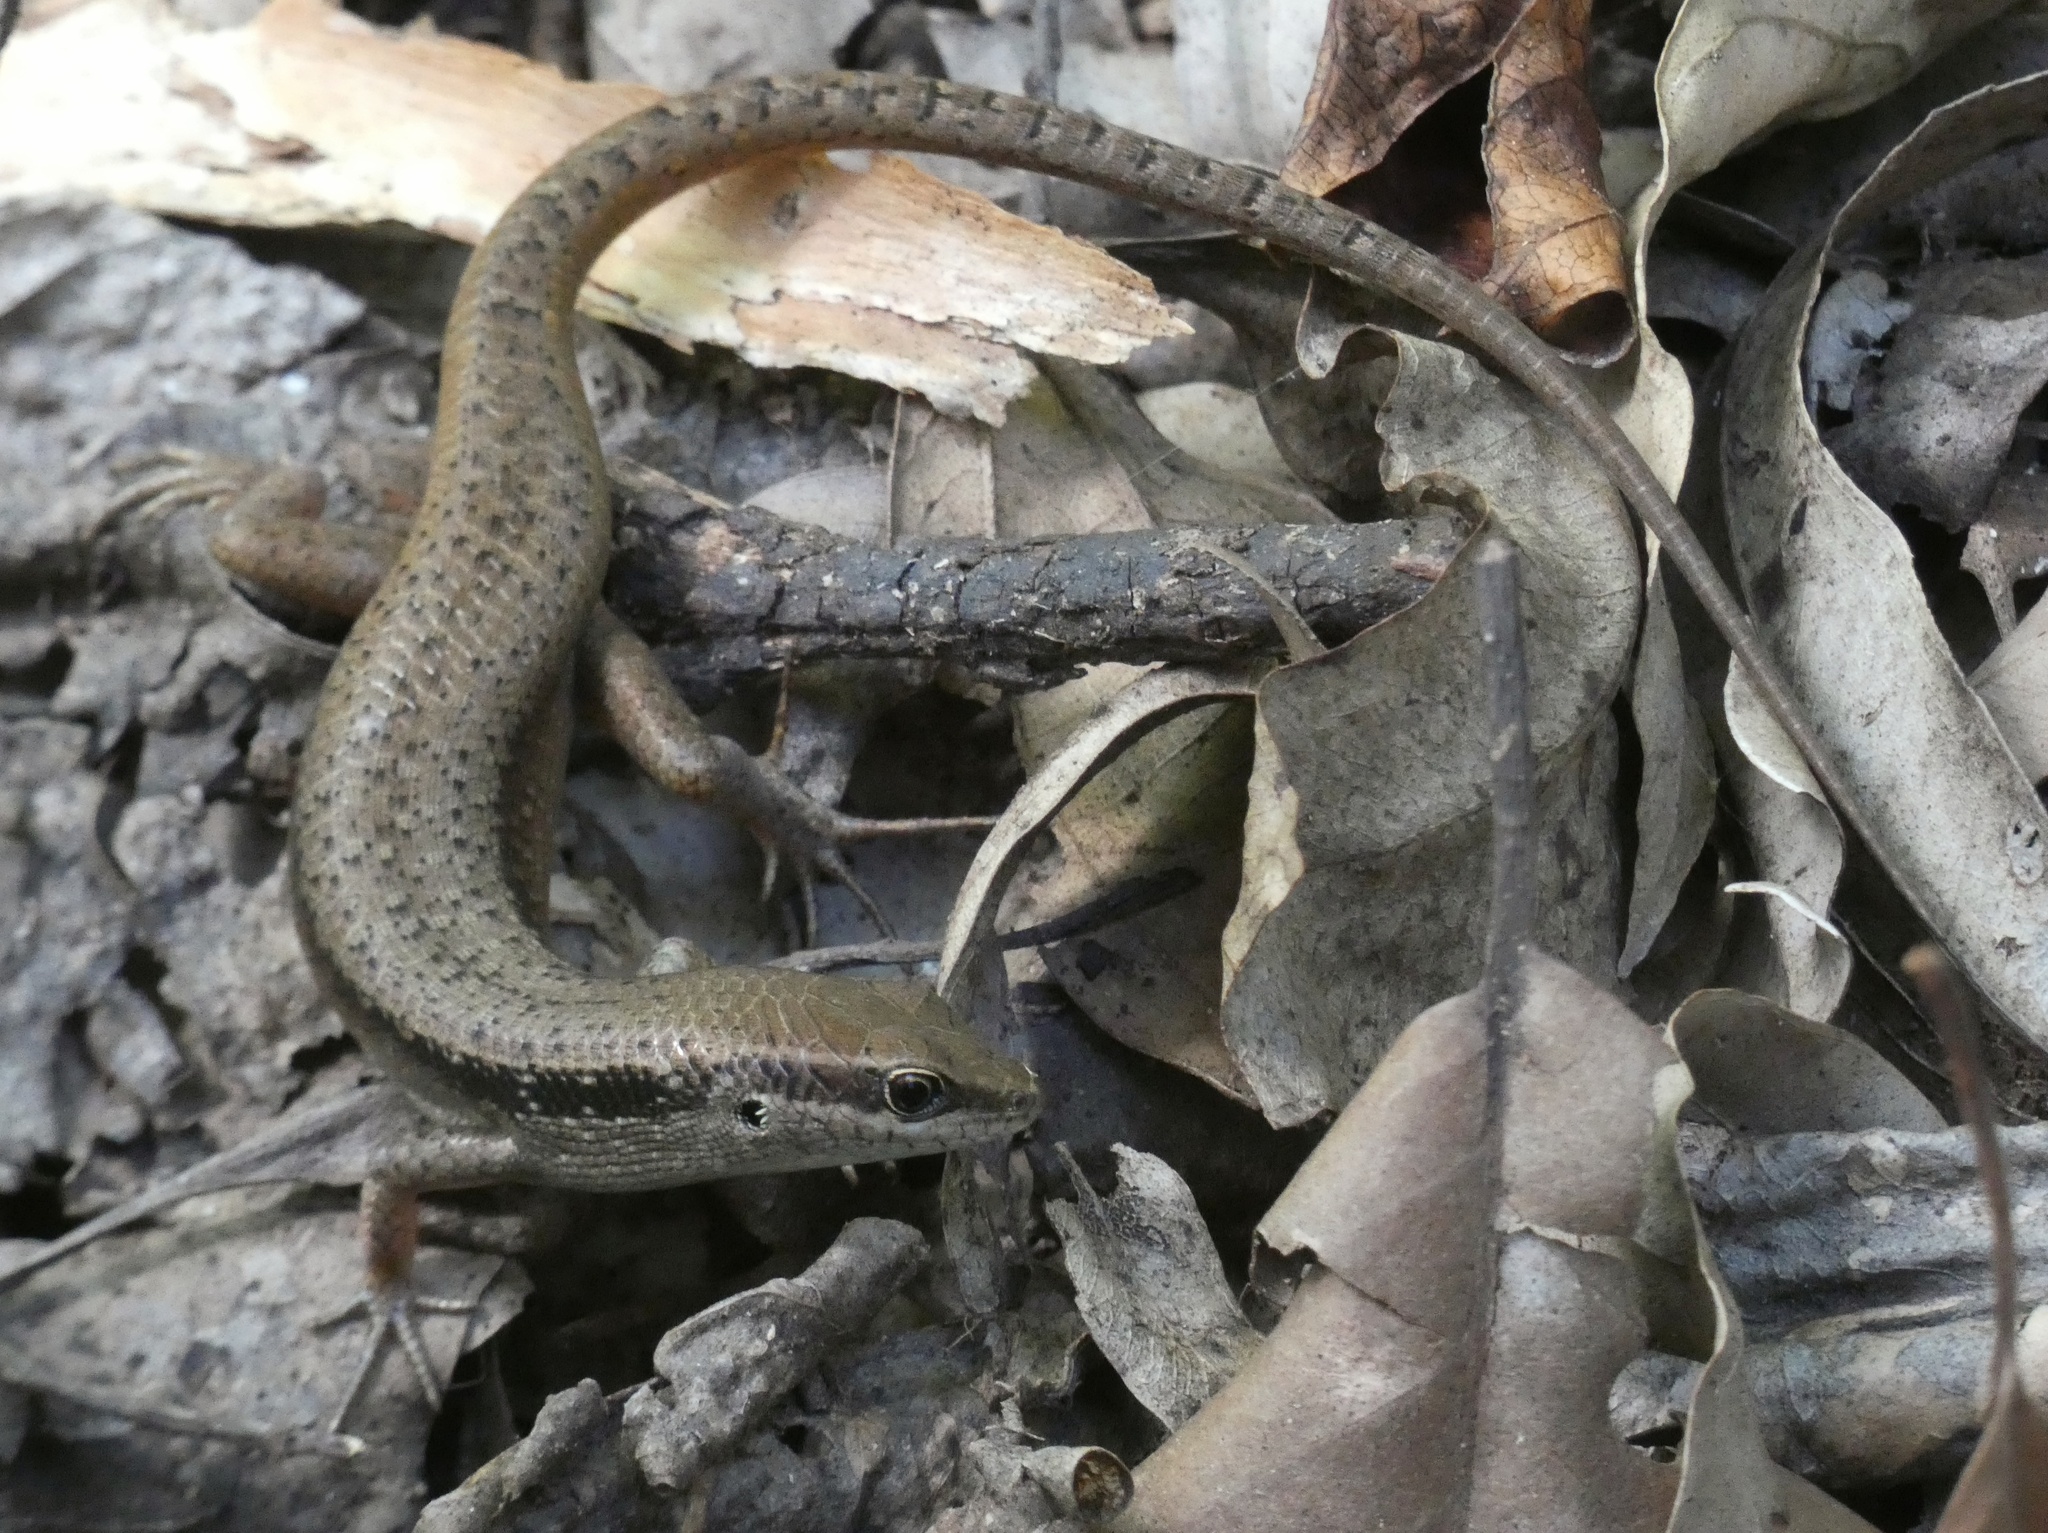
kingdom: Animalia
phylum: Chordata
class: Squamata
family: Scincidae
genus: Carlia
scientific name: Carlia longipes
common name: Closed-litter rainbow-skink
